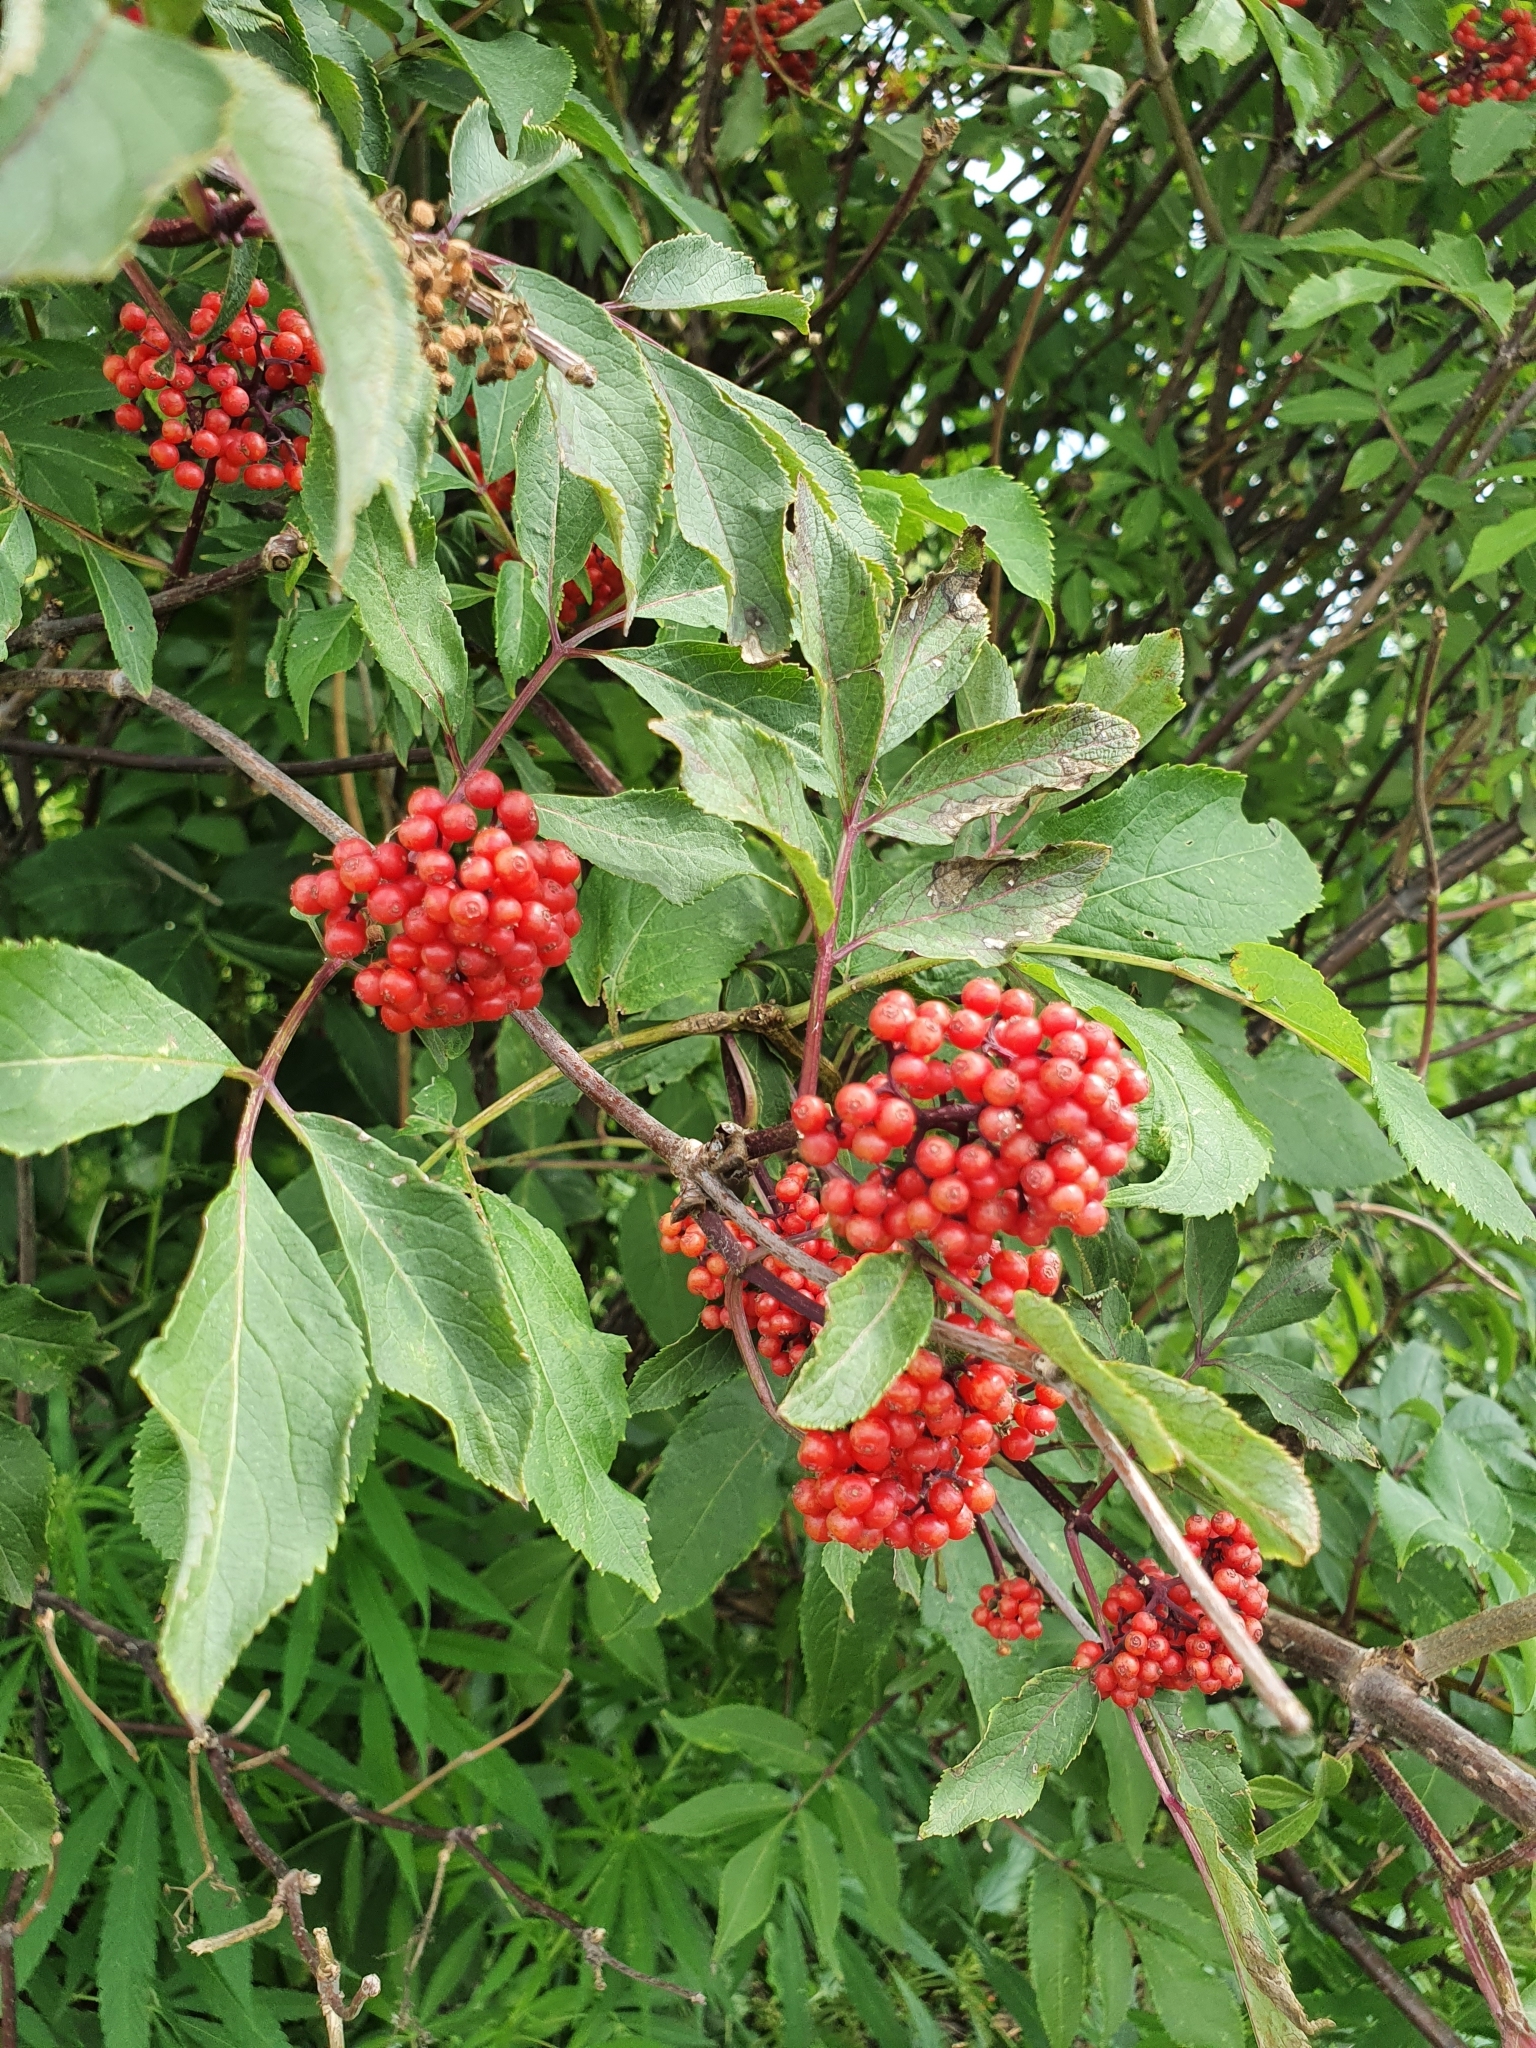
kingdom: Plantae
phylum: Tracheophyta
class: Magnoliopsida
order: Dipsacales
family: Viburnaceae
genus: Sambucus
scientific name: Sambucus racemosa
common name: Red-berried elder
